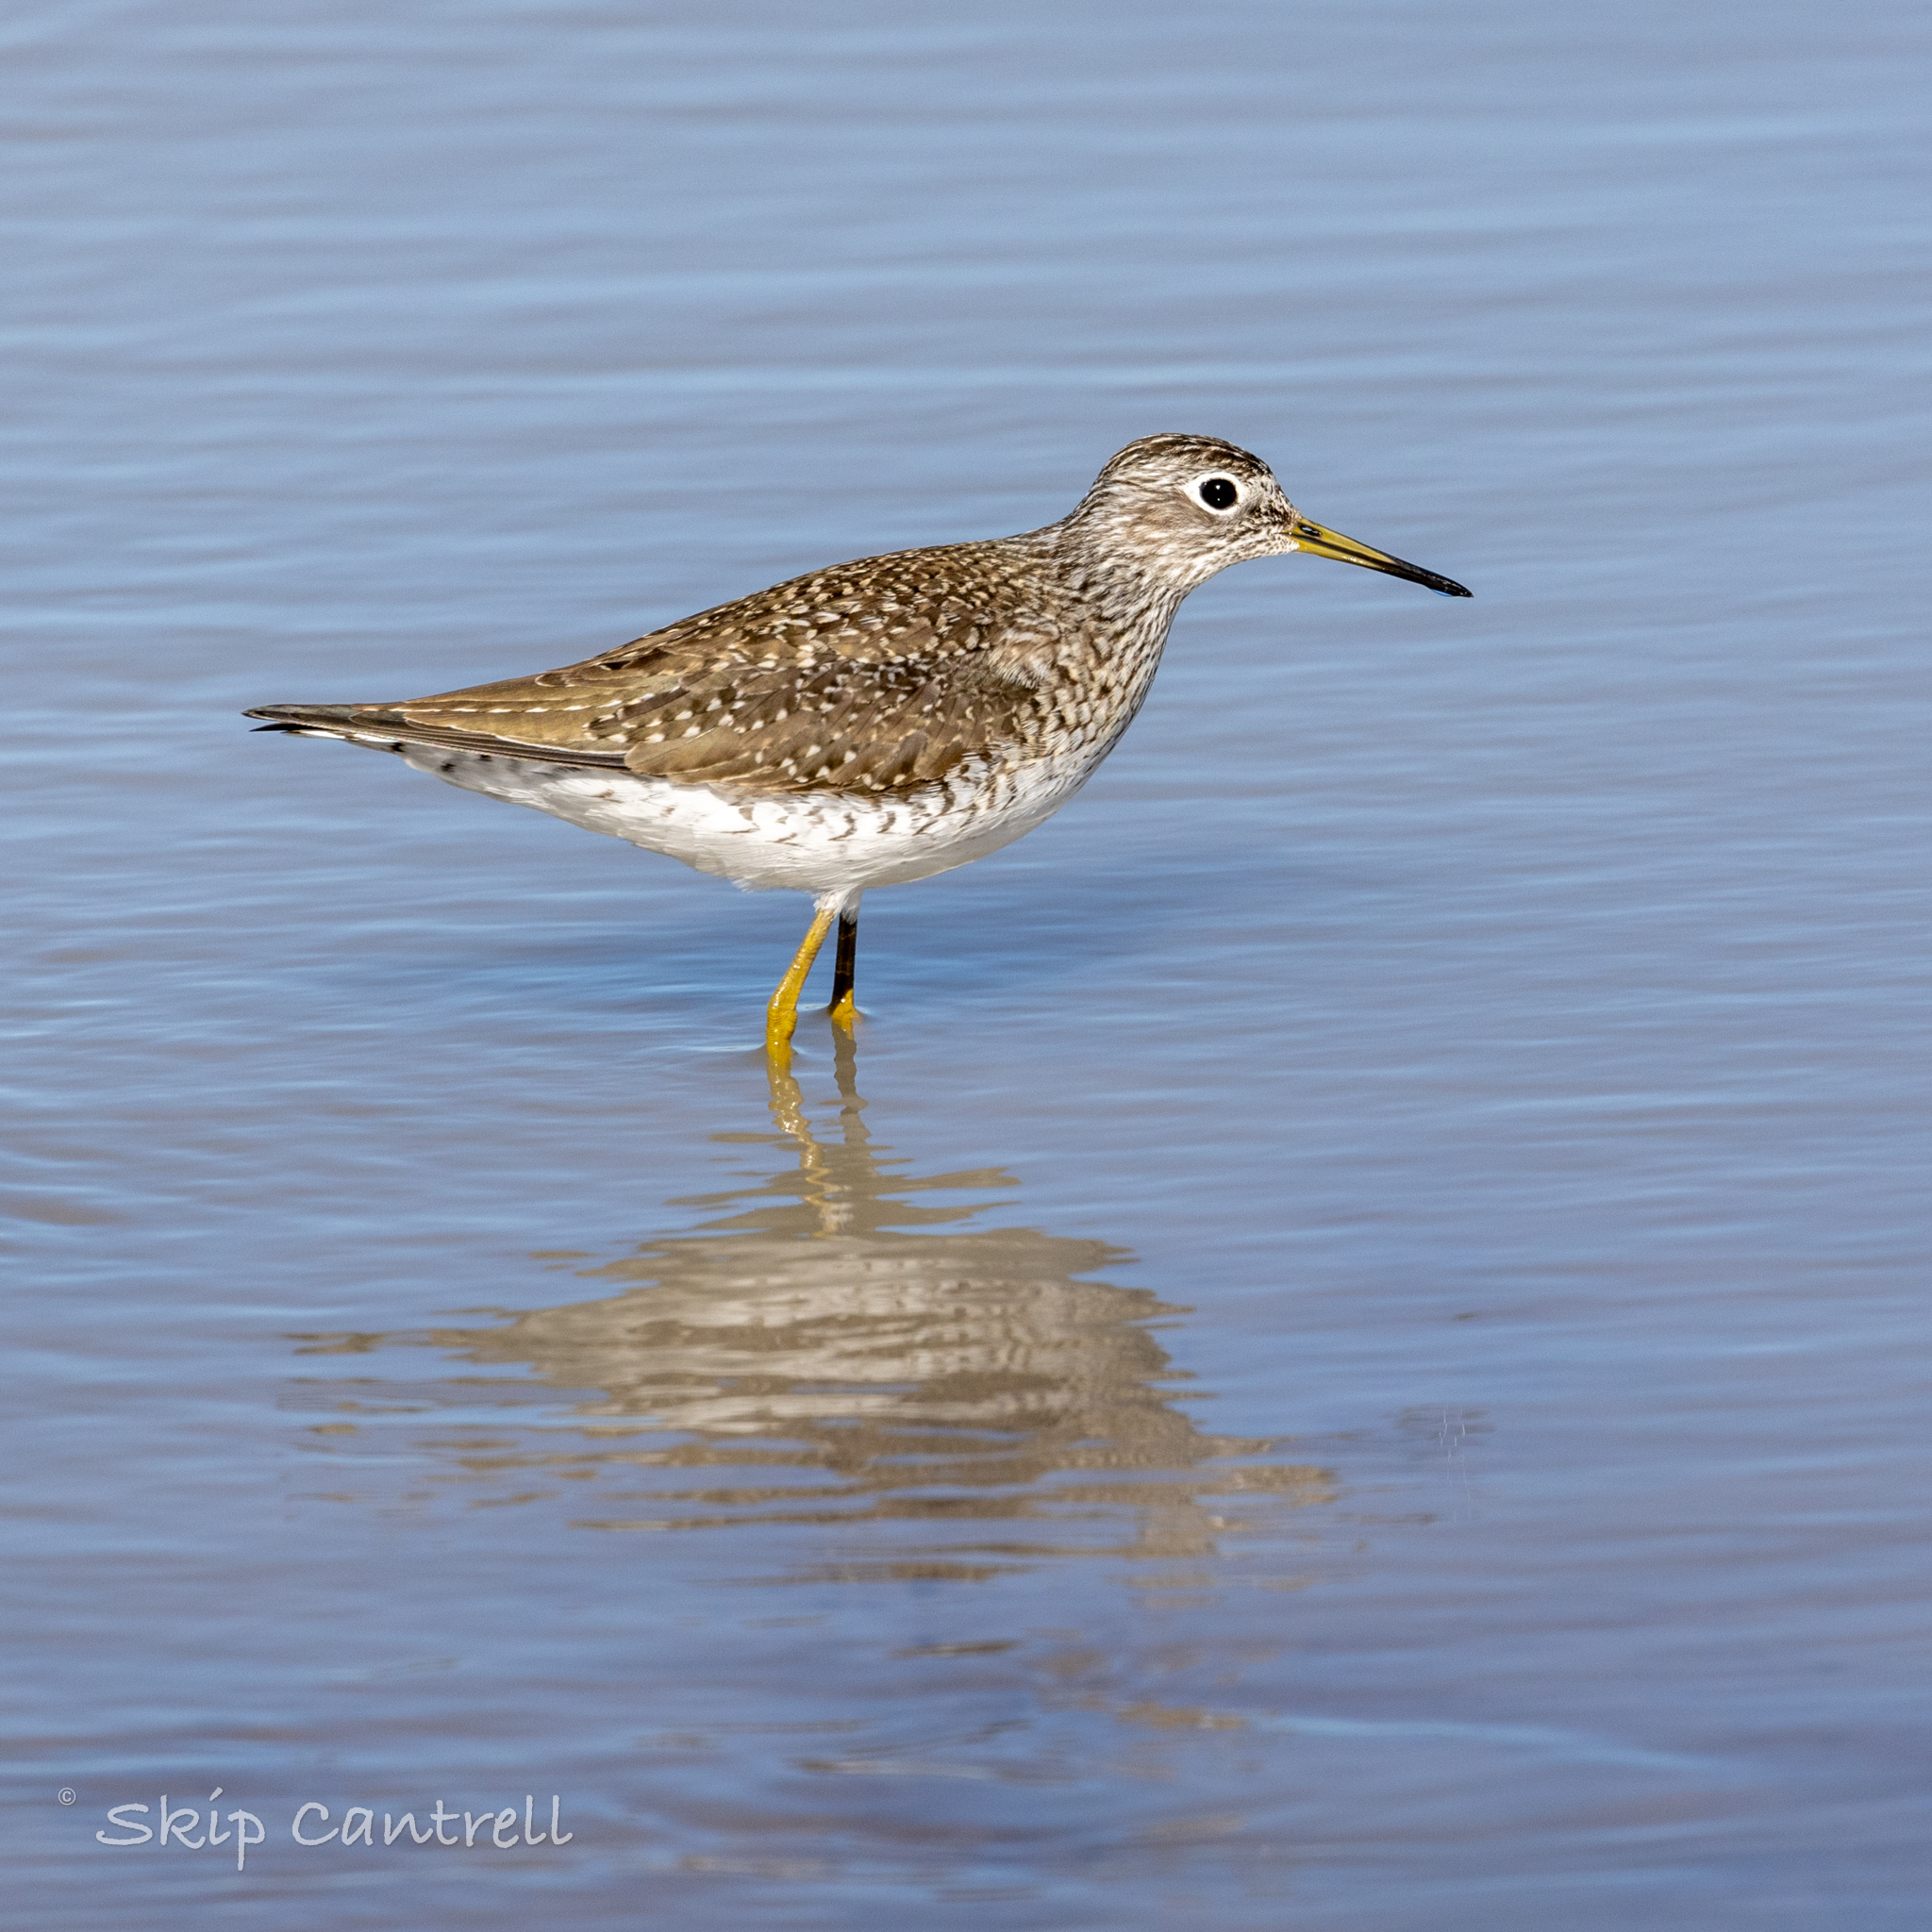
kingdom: Animalia
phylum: Chordata
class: Aves
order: Charadriiformes
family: Scolopacidae
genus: Tringa
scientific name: Tringa solitaria
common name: Solitary sandpiper
